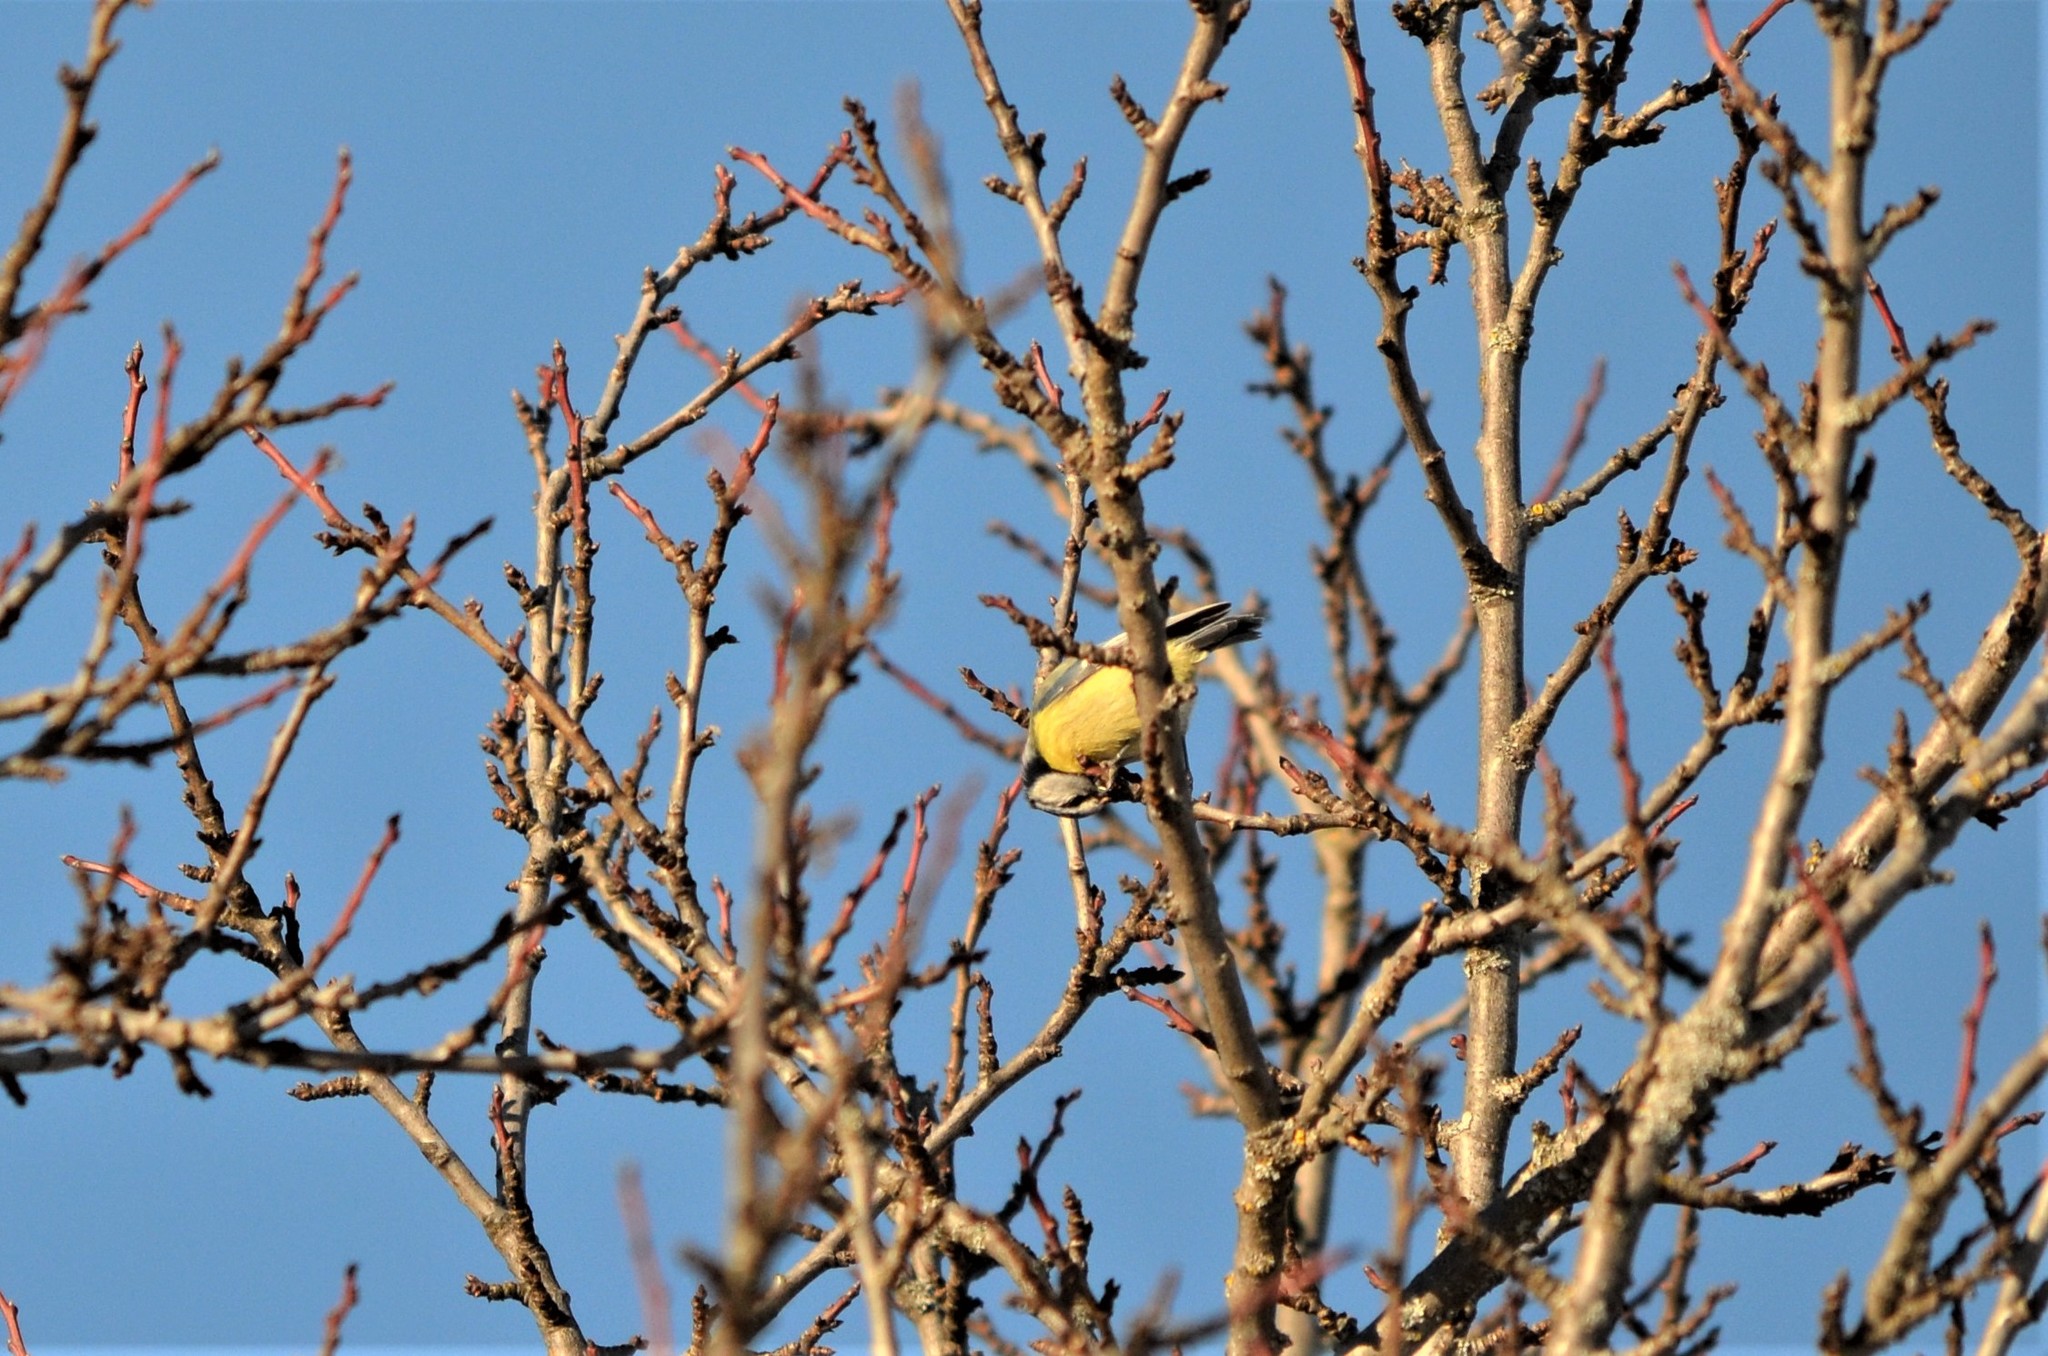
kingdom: Animalia
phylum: Chordata
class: Aves
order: Passeriformes
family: Paridae
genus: Cyanistes
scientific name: Cyanistes caeruleus
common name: Eurasian blue tit
